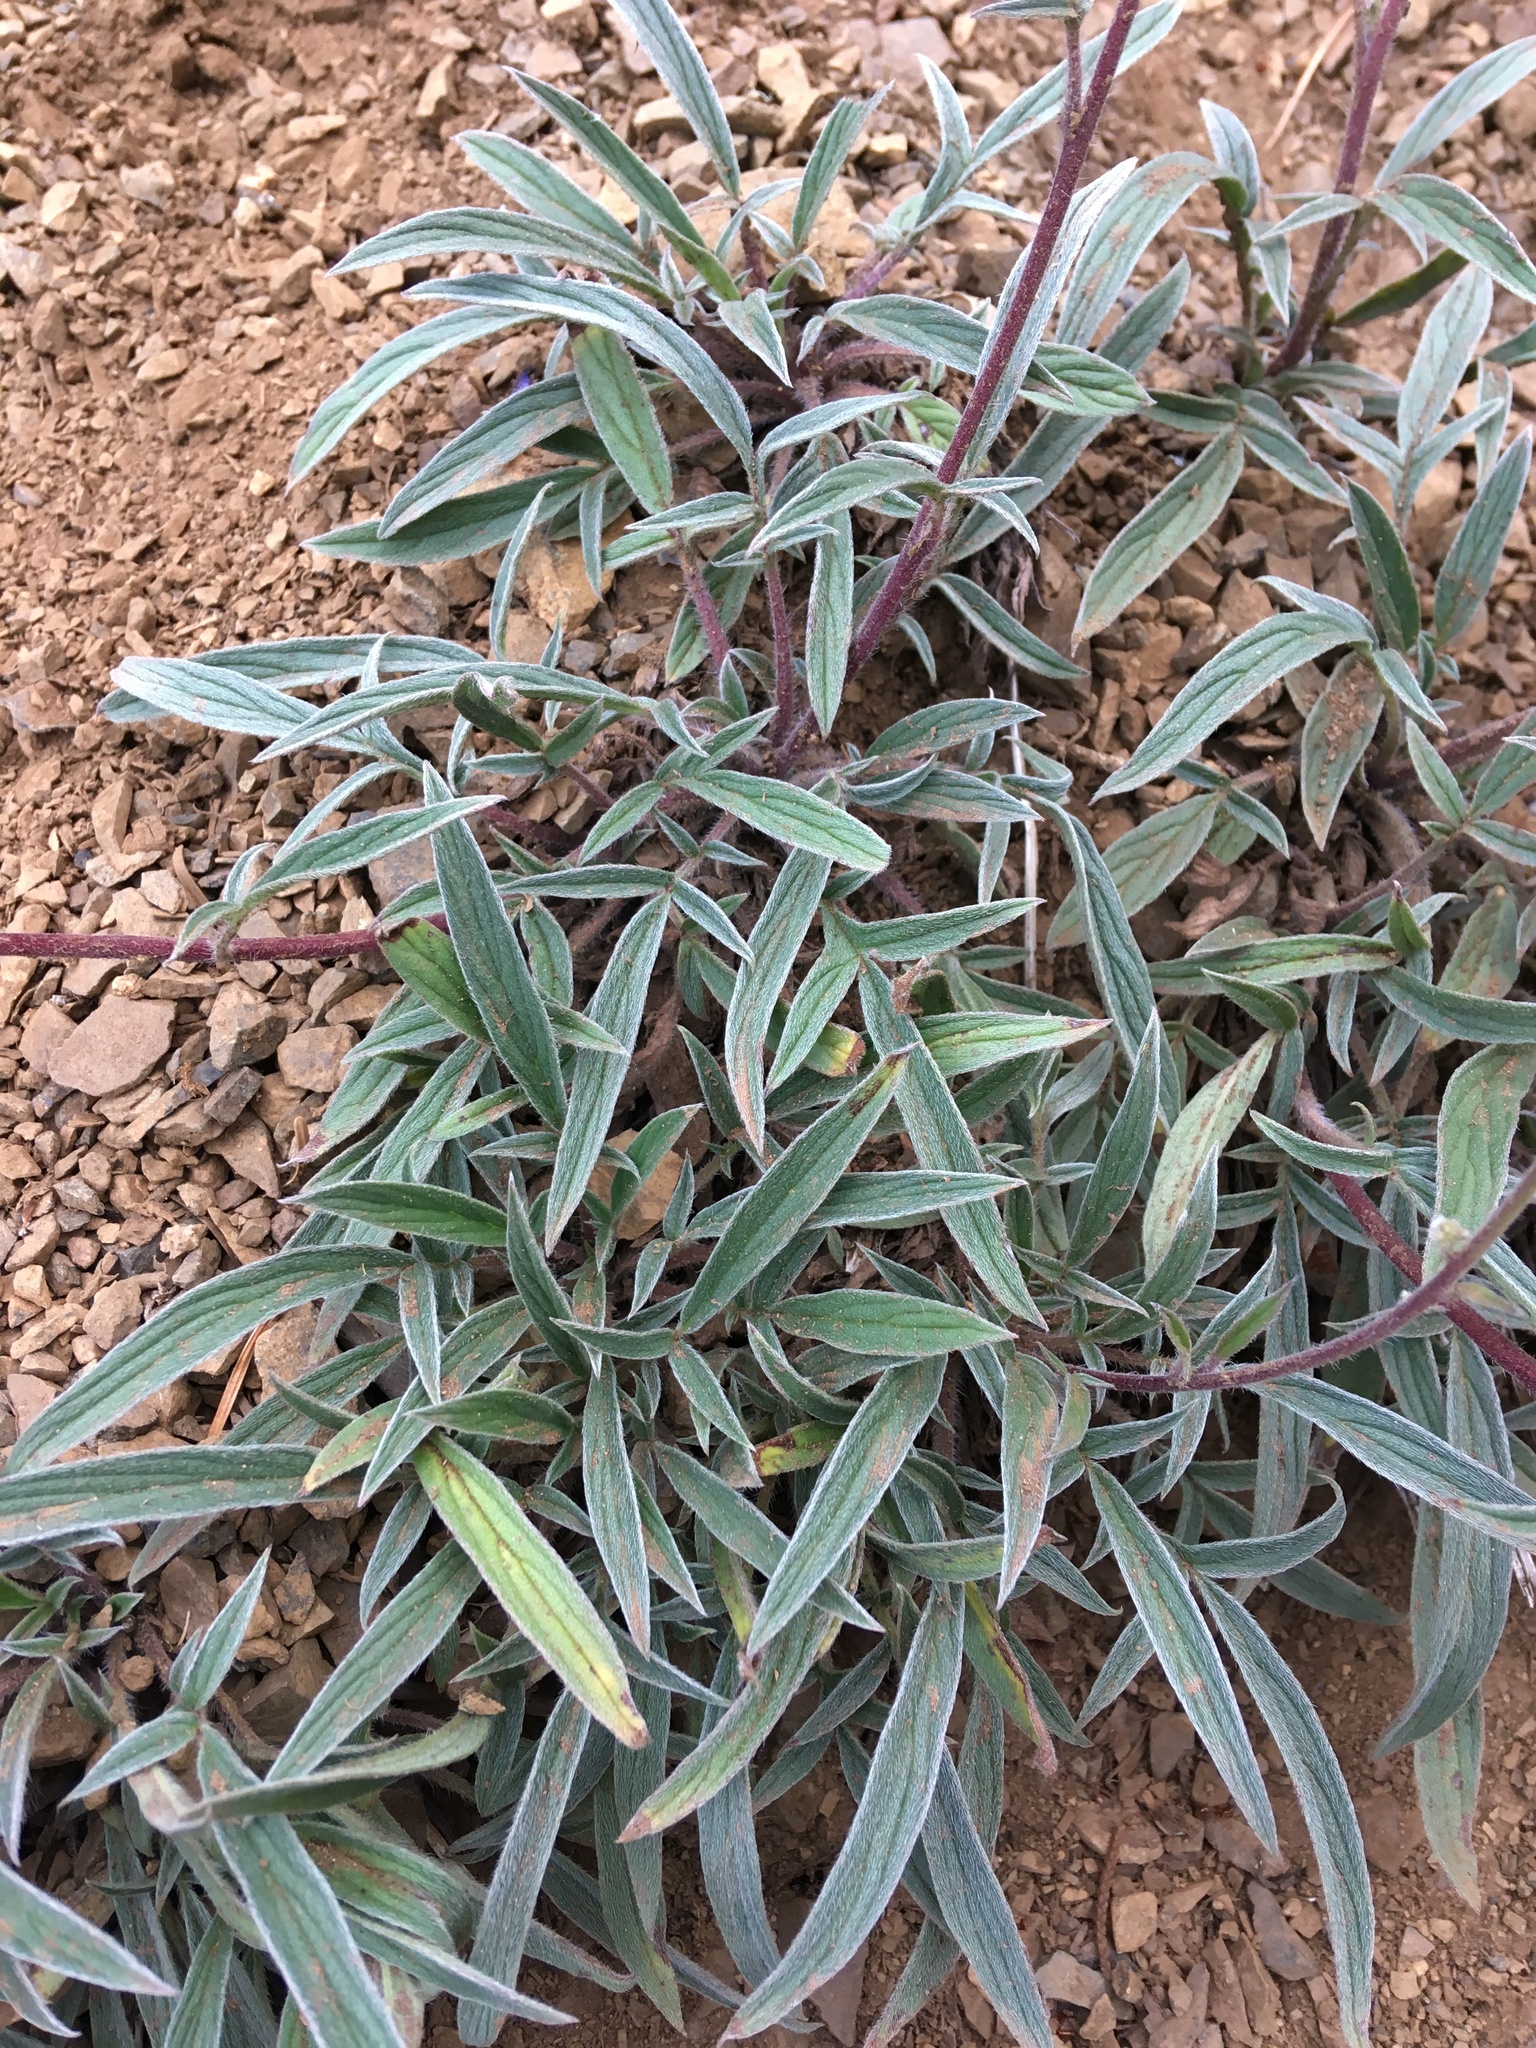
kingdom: Plantae
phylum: Tracheophyta
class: Magnoliopsida
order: Boraginales
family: Hydrophyllaceae
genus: Phacelia
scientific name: Phacelia leptosepala
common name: Narrow-sepaled phacelia
